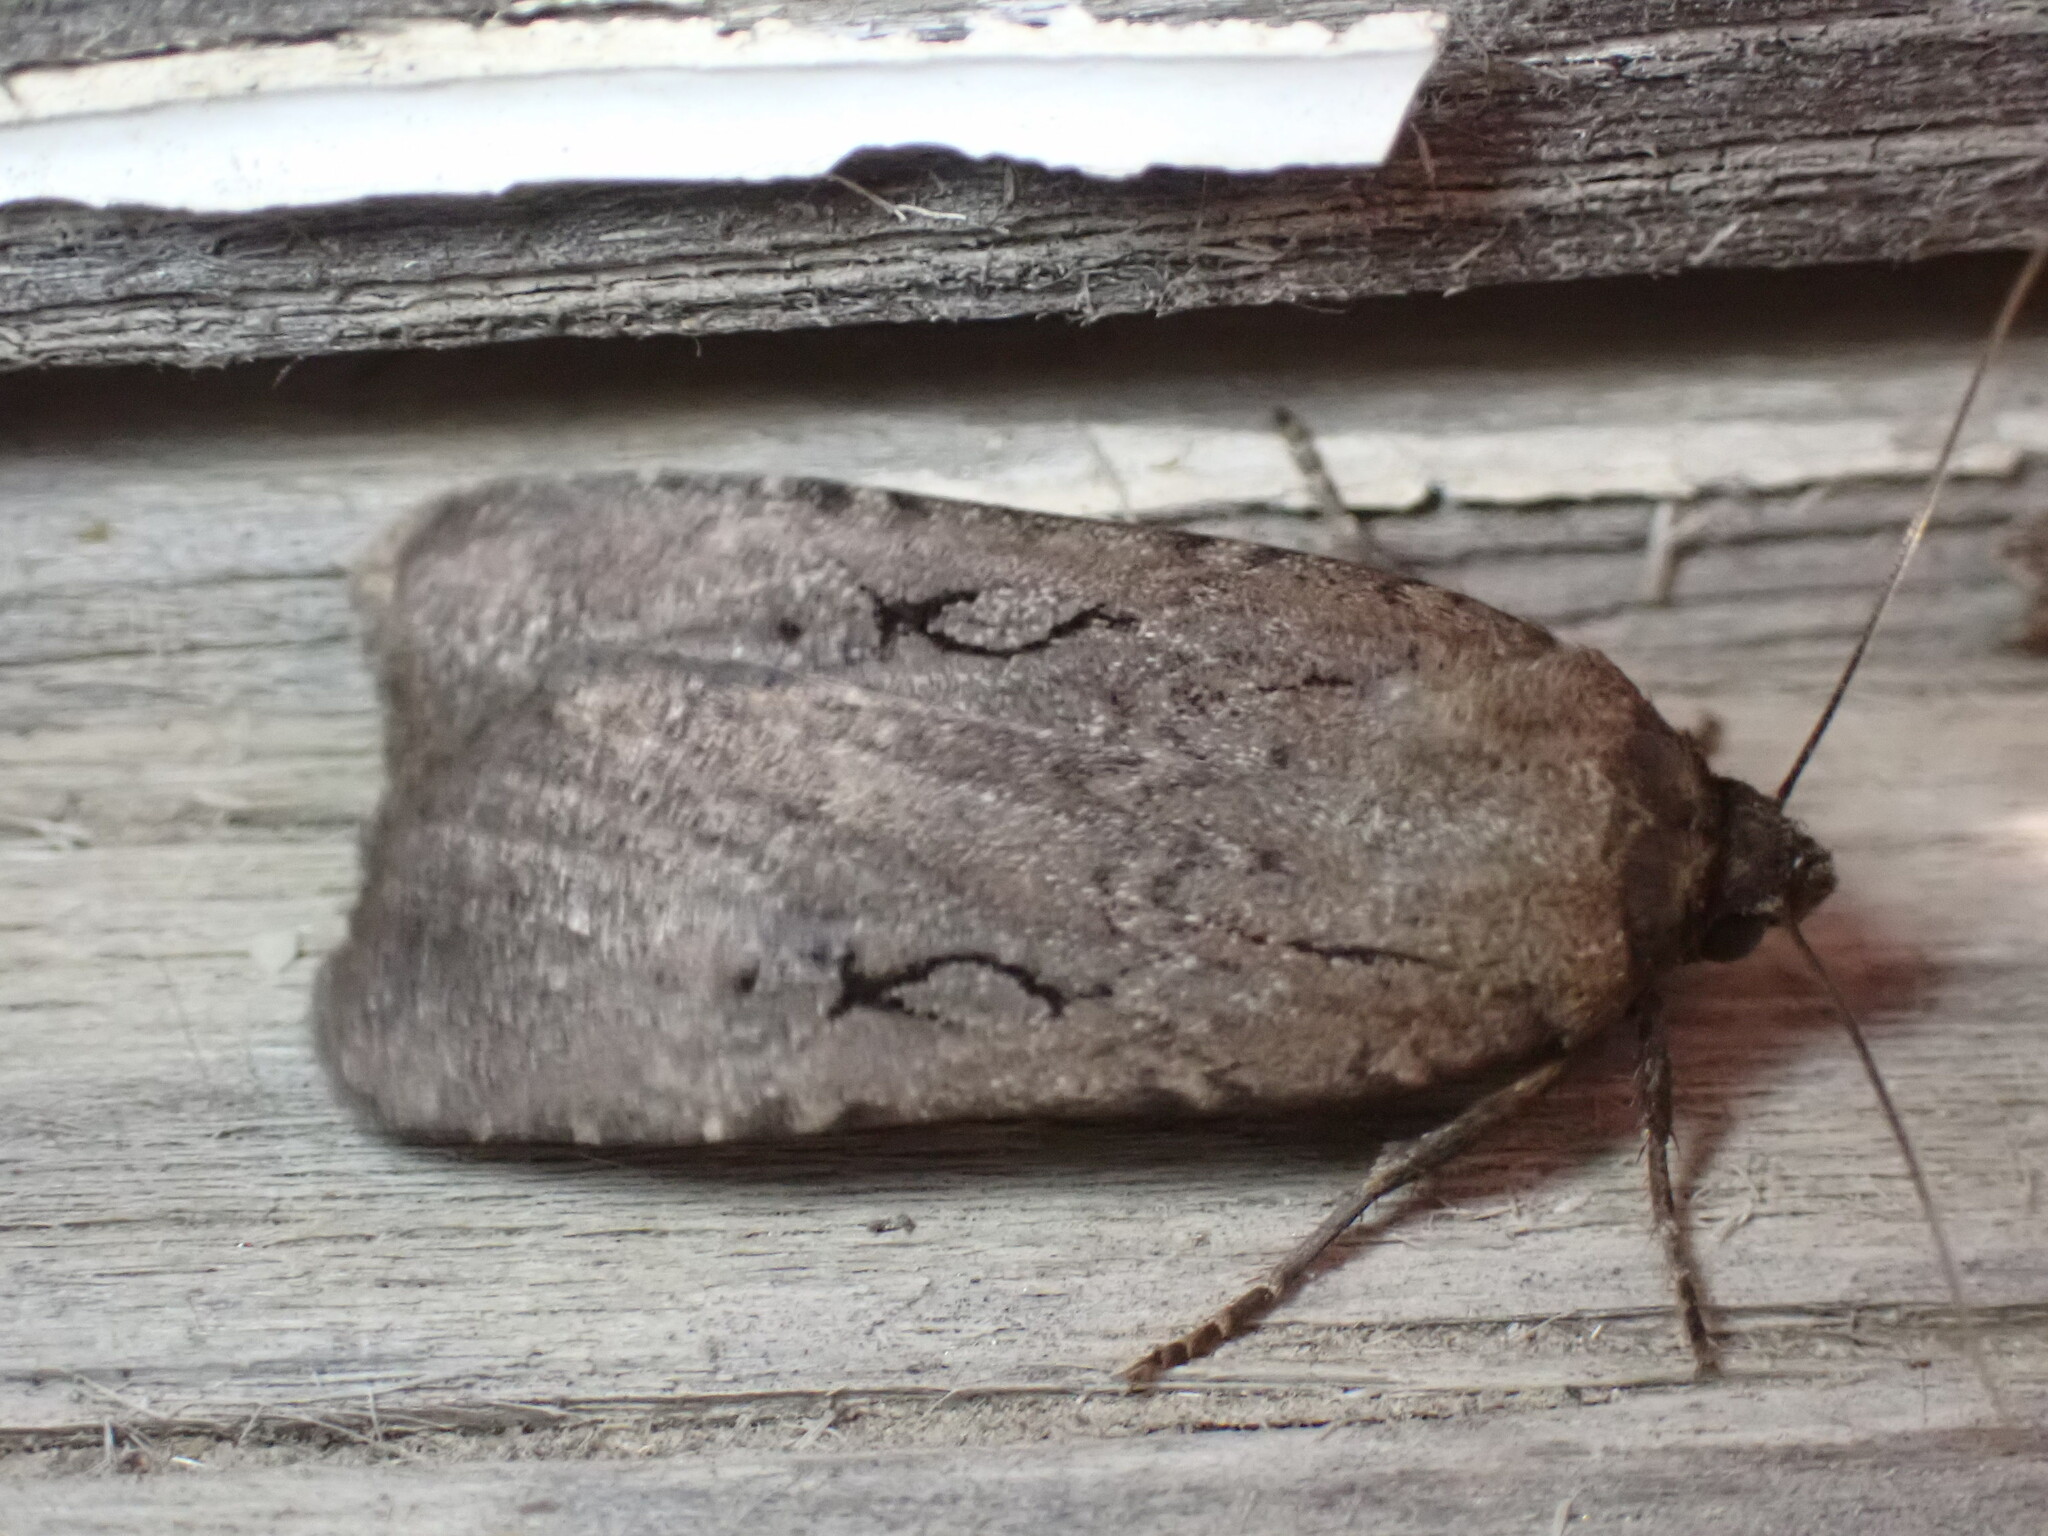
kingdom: Animalia
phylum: Arthropoda
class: Insecta
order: Lepidoptera
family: Noctuidae
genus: Spaelotis
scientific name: Spaelotis clandestina
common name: Clandestine dart
